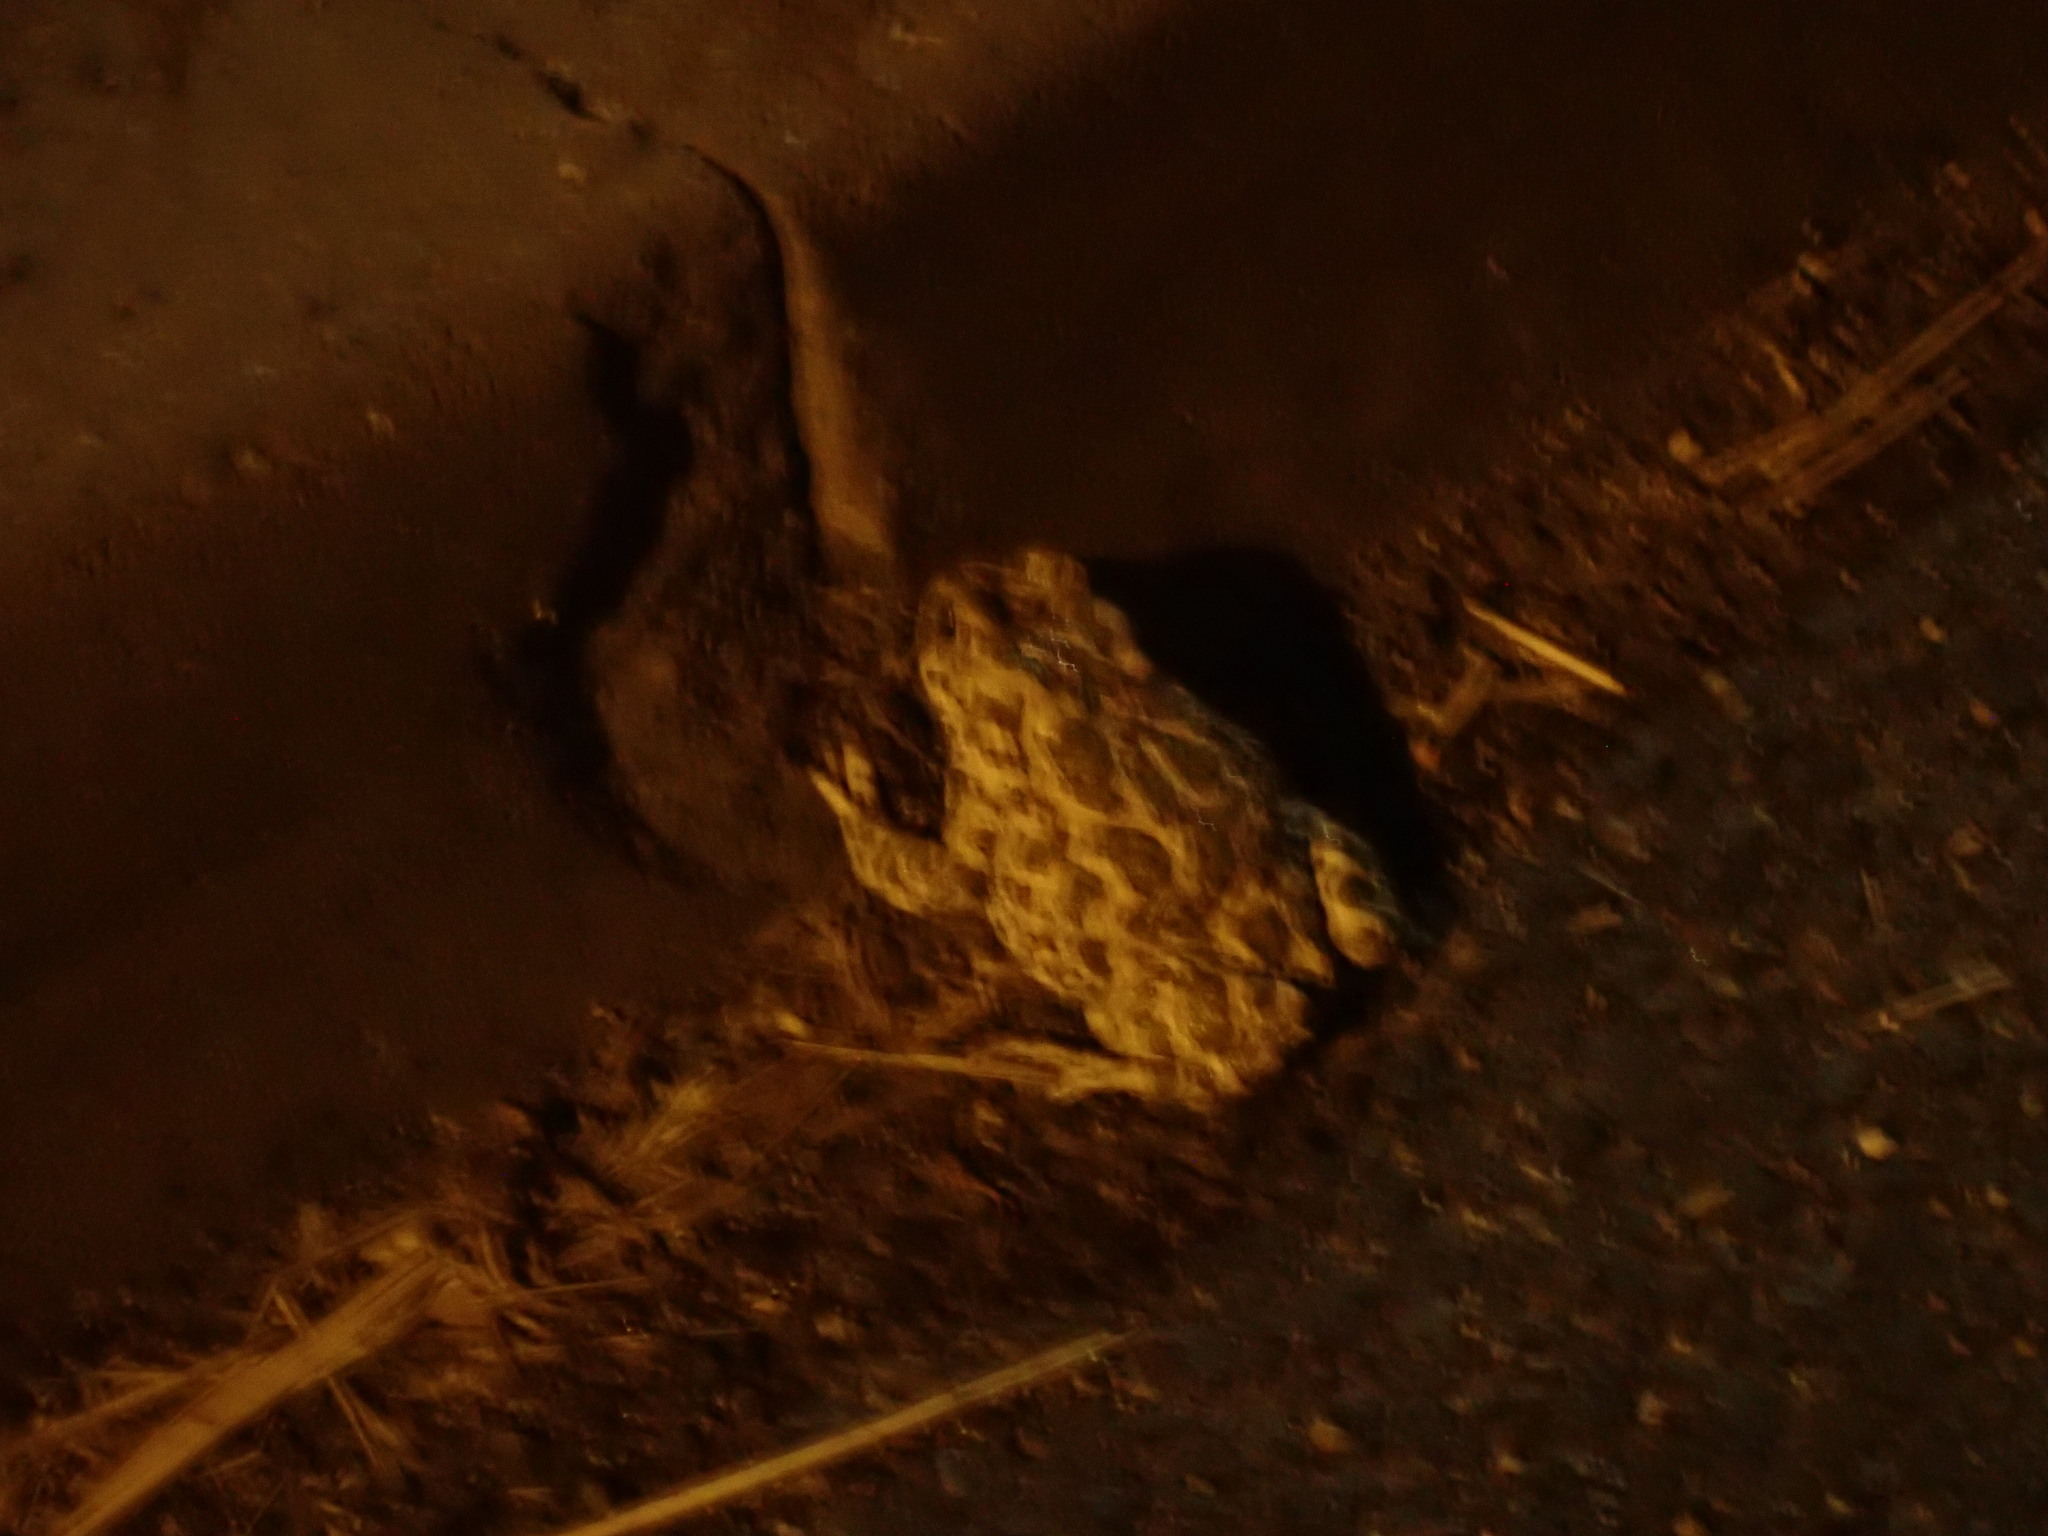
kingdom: Animalia
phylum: Chordata
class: Amphibia
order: Anura
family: Bufonidae
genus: Bufotes
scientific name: Bufotes viridis
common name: European green toad
